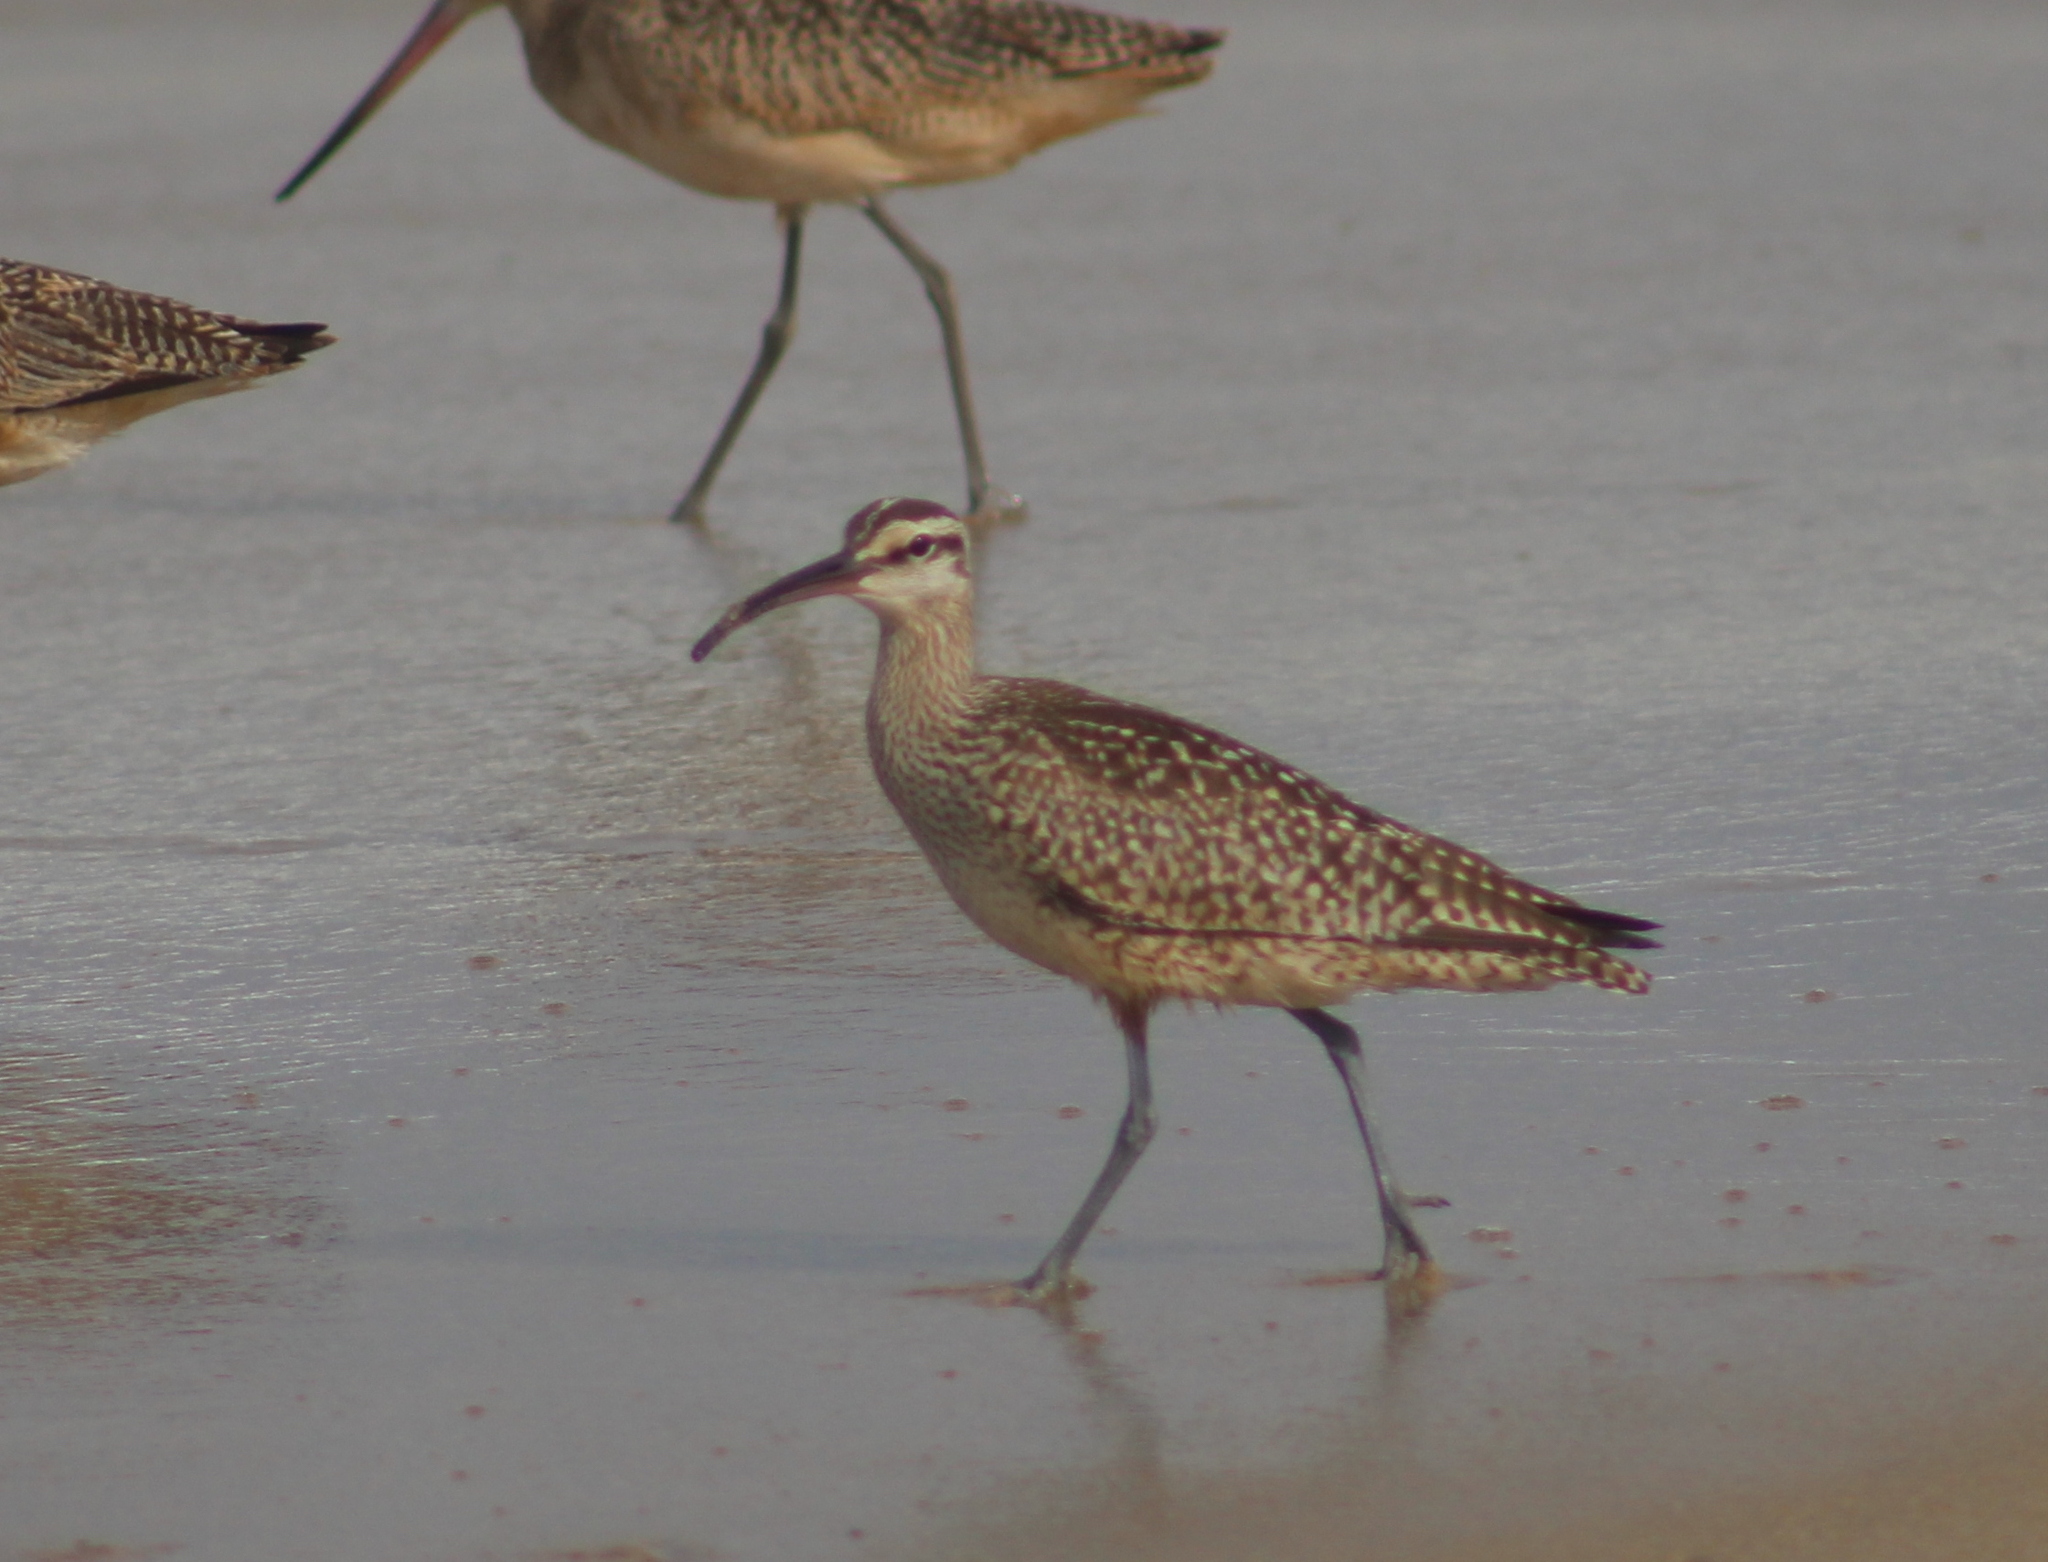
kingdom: Animalia
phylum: Chordata
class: Aves
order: Charadriiformes
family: Scolopacidae
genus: Numenius
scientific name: Numenius phaeopus
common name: Whimbrel
